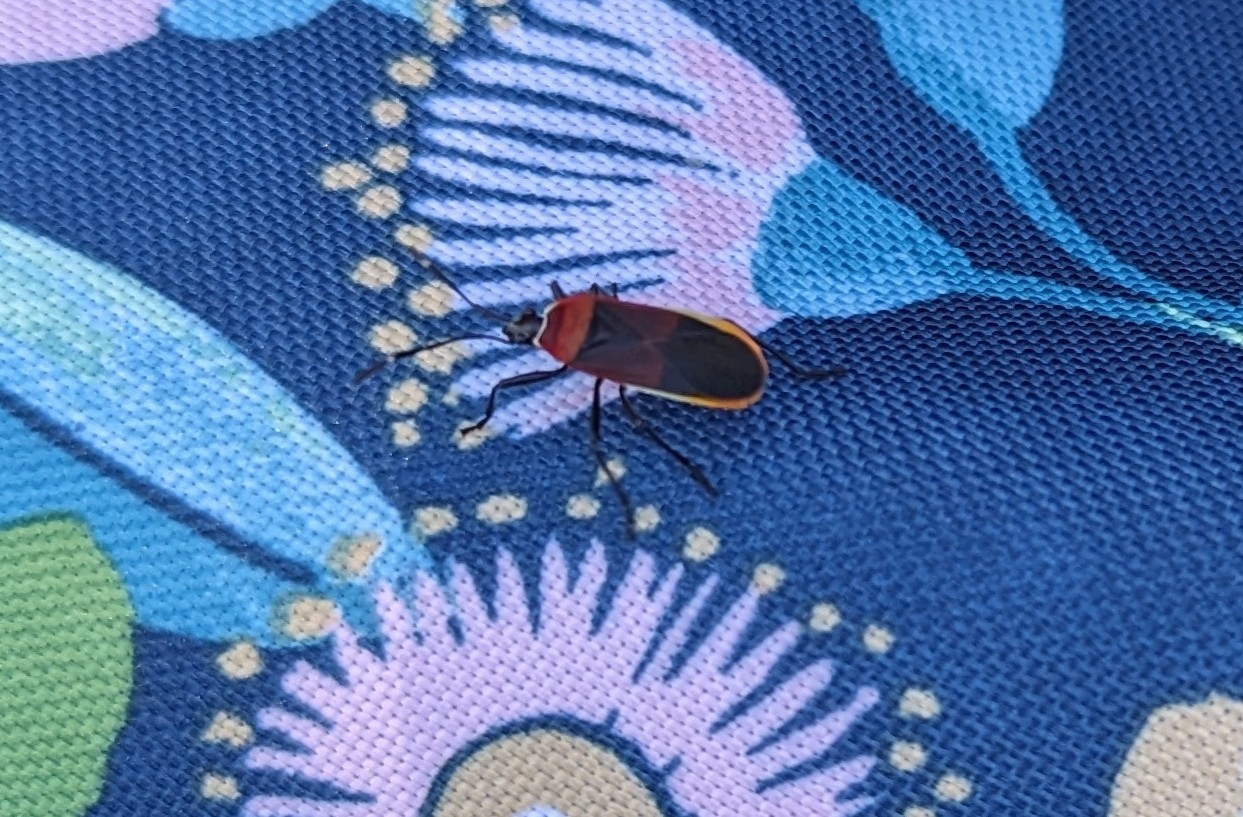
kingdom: Animalia
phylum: Arthropoda
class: Insecta
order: Hemiptera
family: Pyrrhocoridae
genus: Dindymus
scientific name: Dindymus
